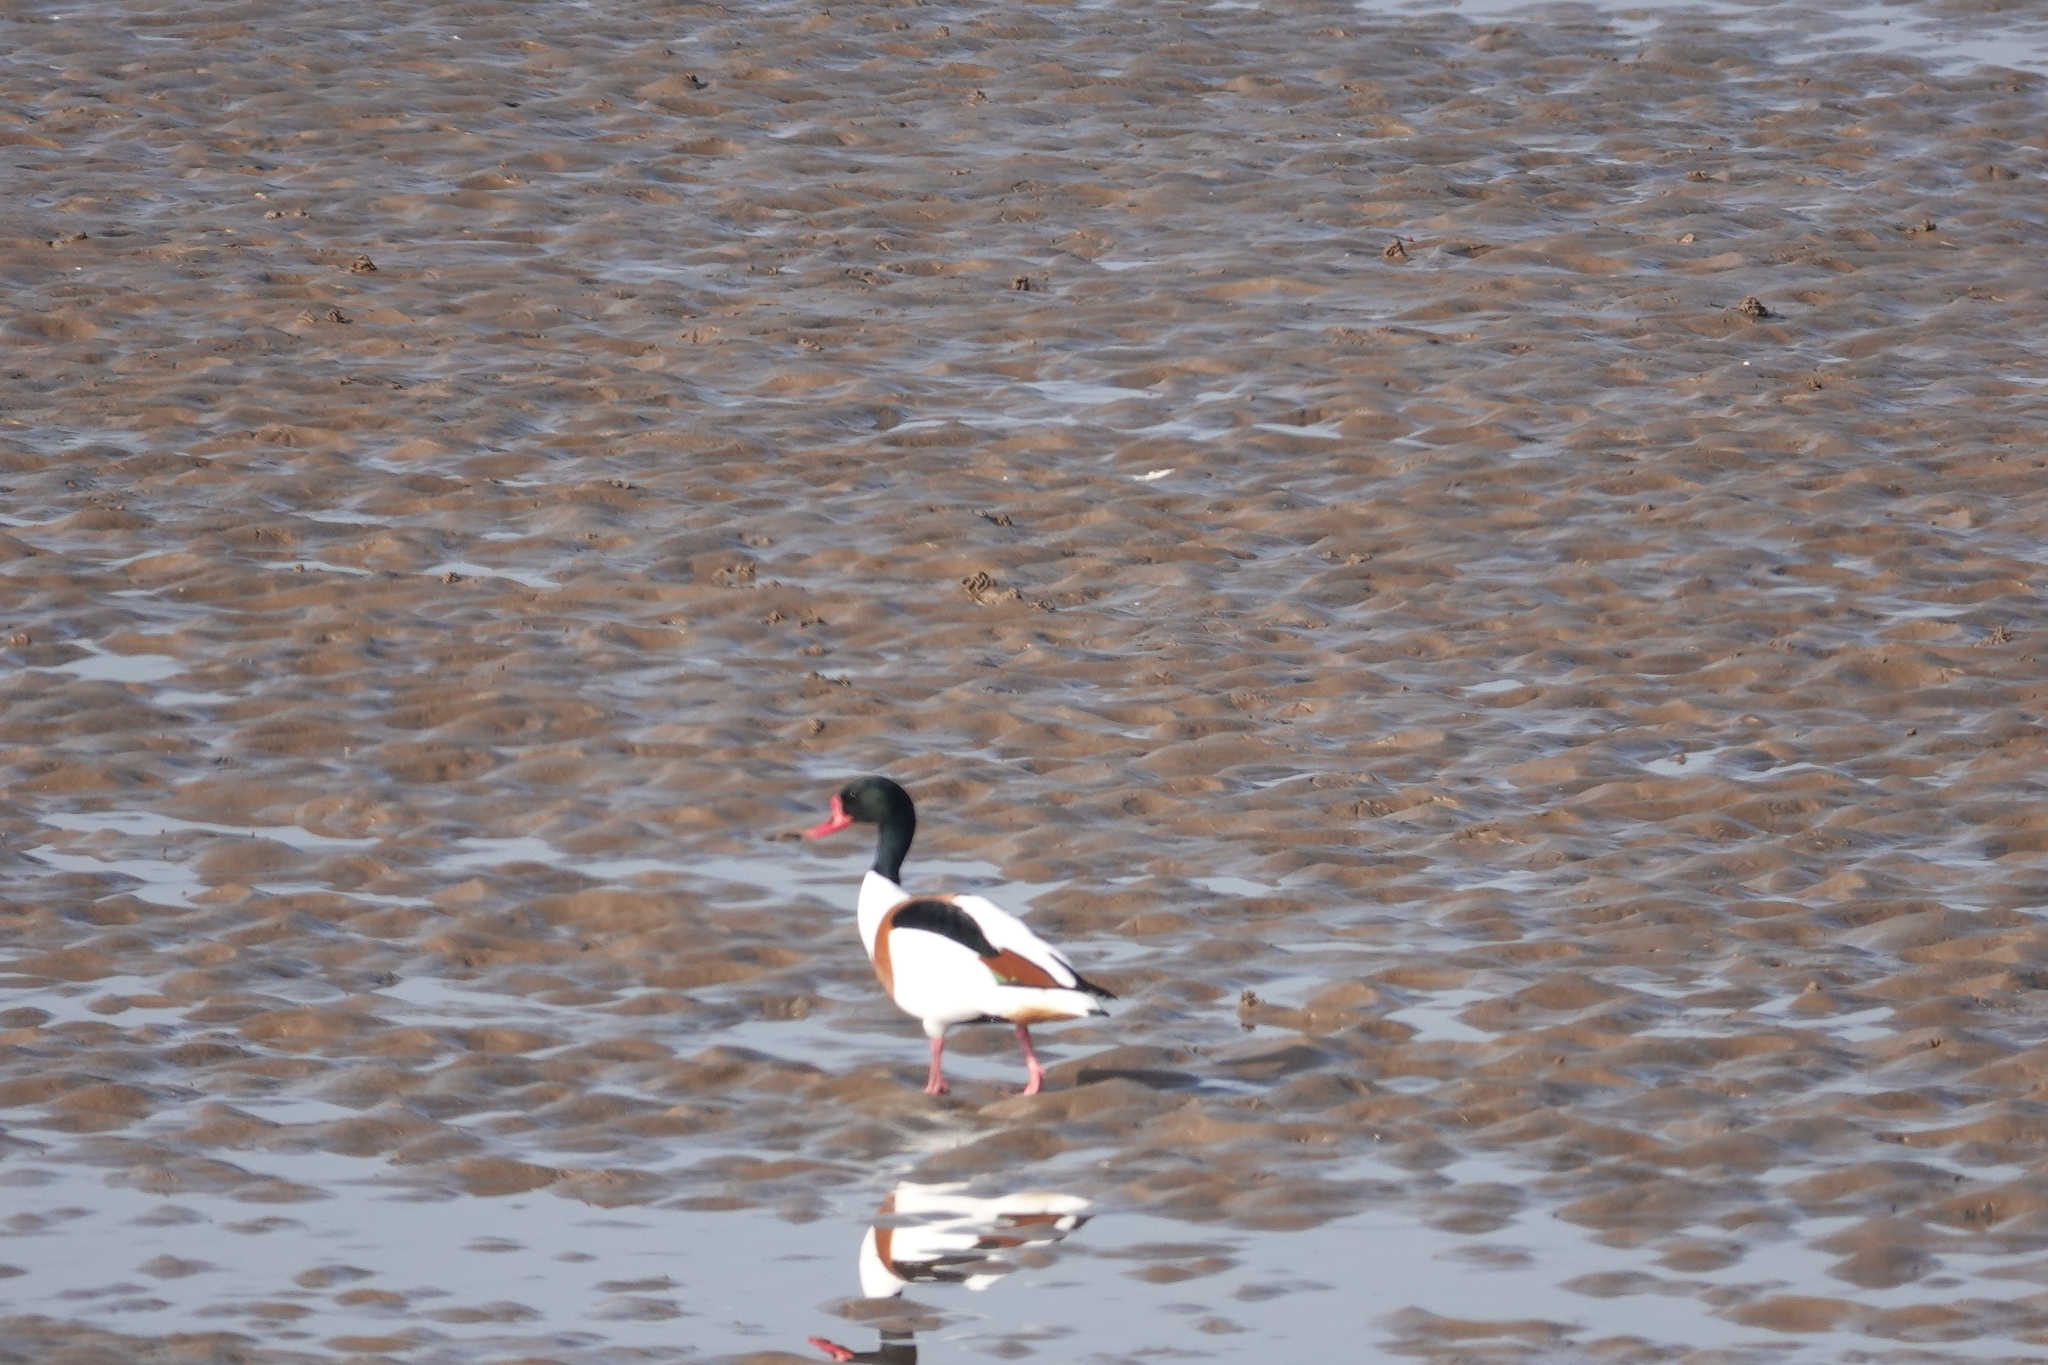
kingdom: Animalia
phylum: Chordata
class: Aves
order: Anseriformes
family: Anatidae
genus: Tadorna
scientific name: Tadorna tadorna
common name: Common shelduck
